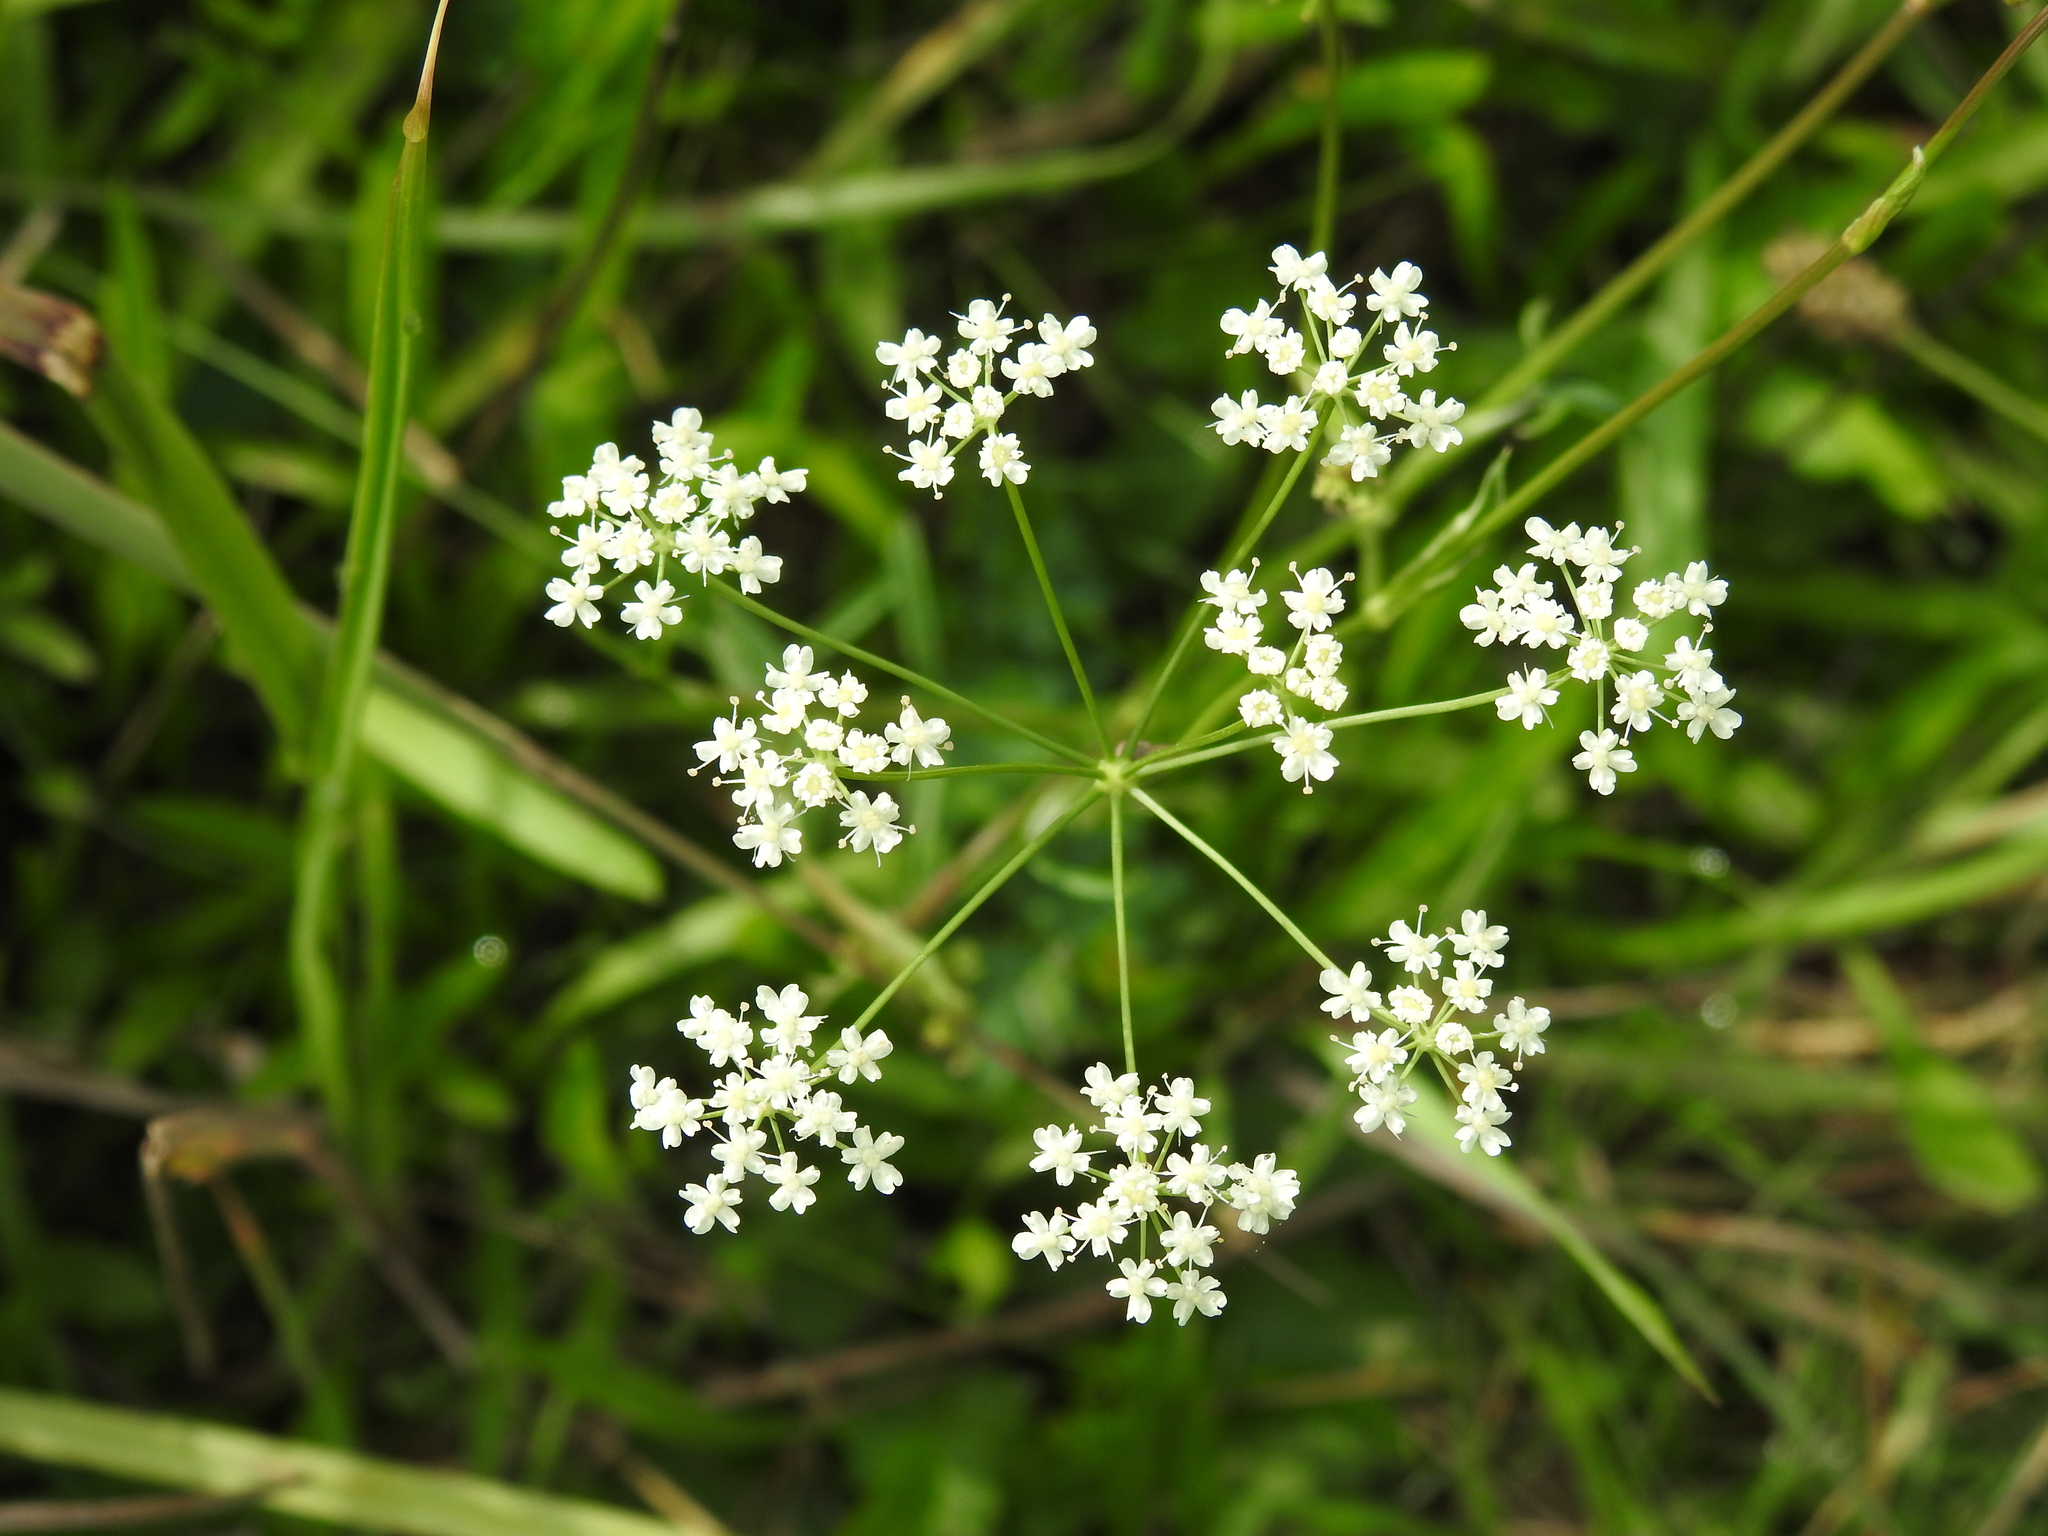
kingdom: Plantae
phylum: Tracheophyta
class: Magnoliopsida
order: Apiales
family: Apiaceae
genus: Pimpinella
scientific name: Pimpinella saxifraga
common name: Burnet-saxifrage
